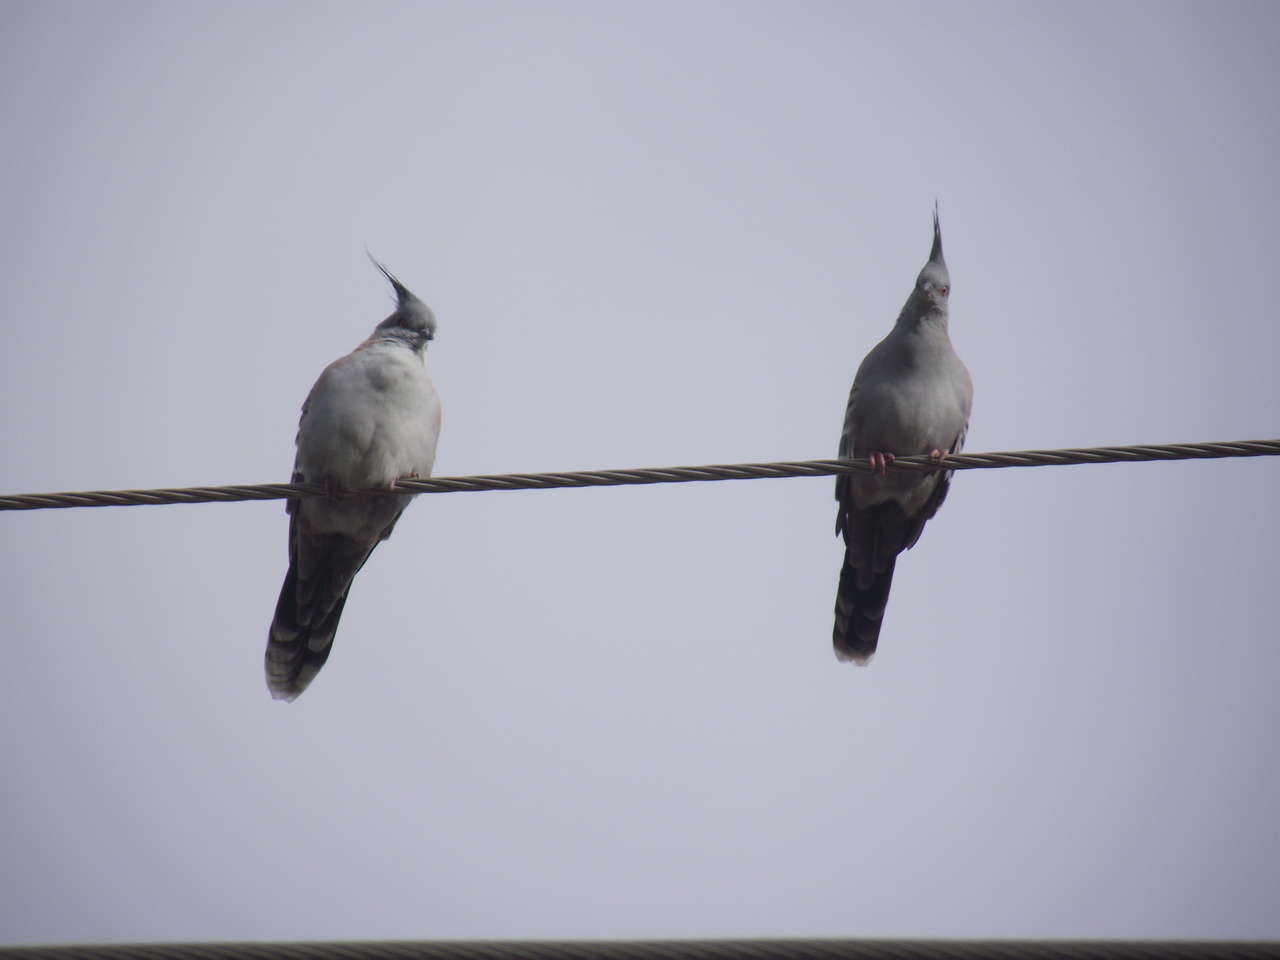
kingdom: Animalia
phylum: Chordata
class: Aves
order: Columbiformes
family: Columbidae
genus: Ocyphaps
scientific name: Ocyphaps lophotes
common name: Crested pigeon
